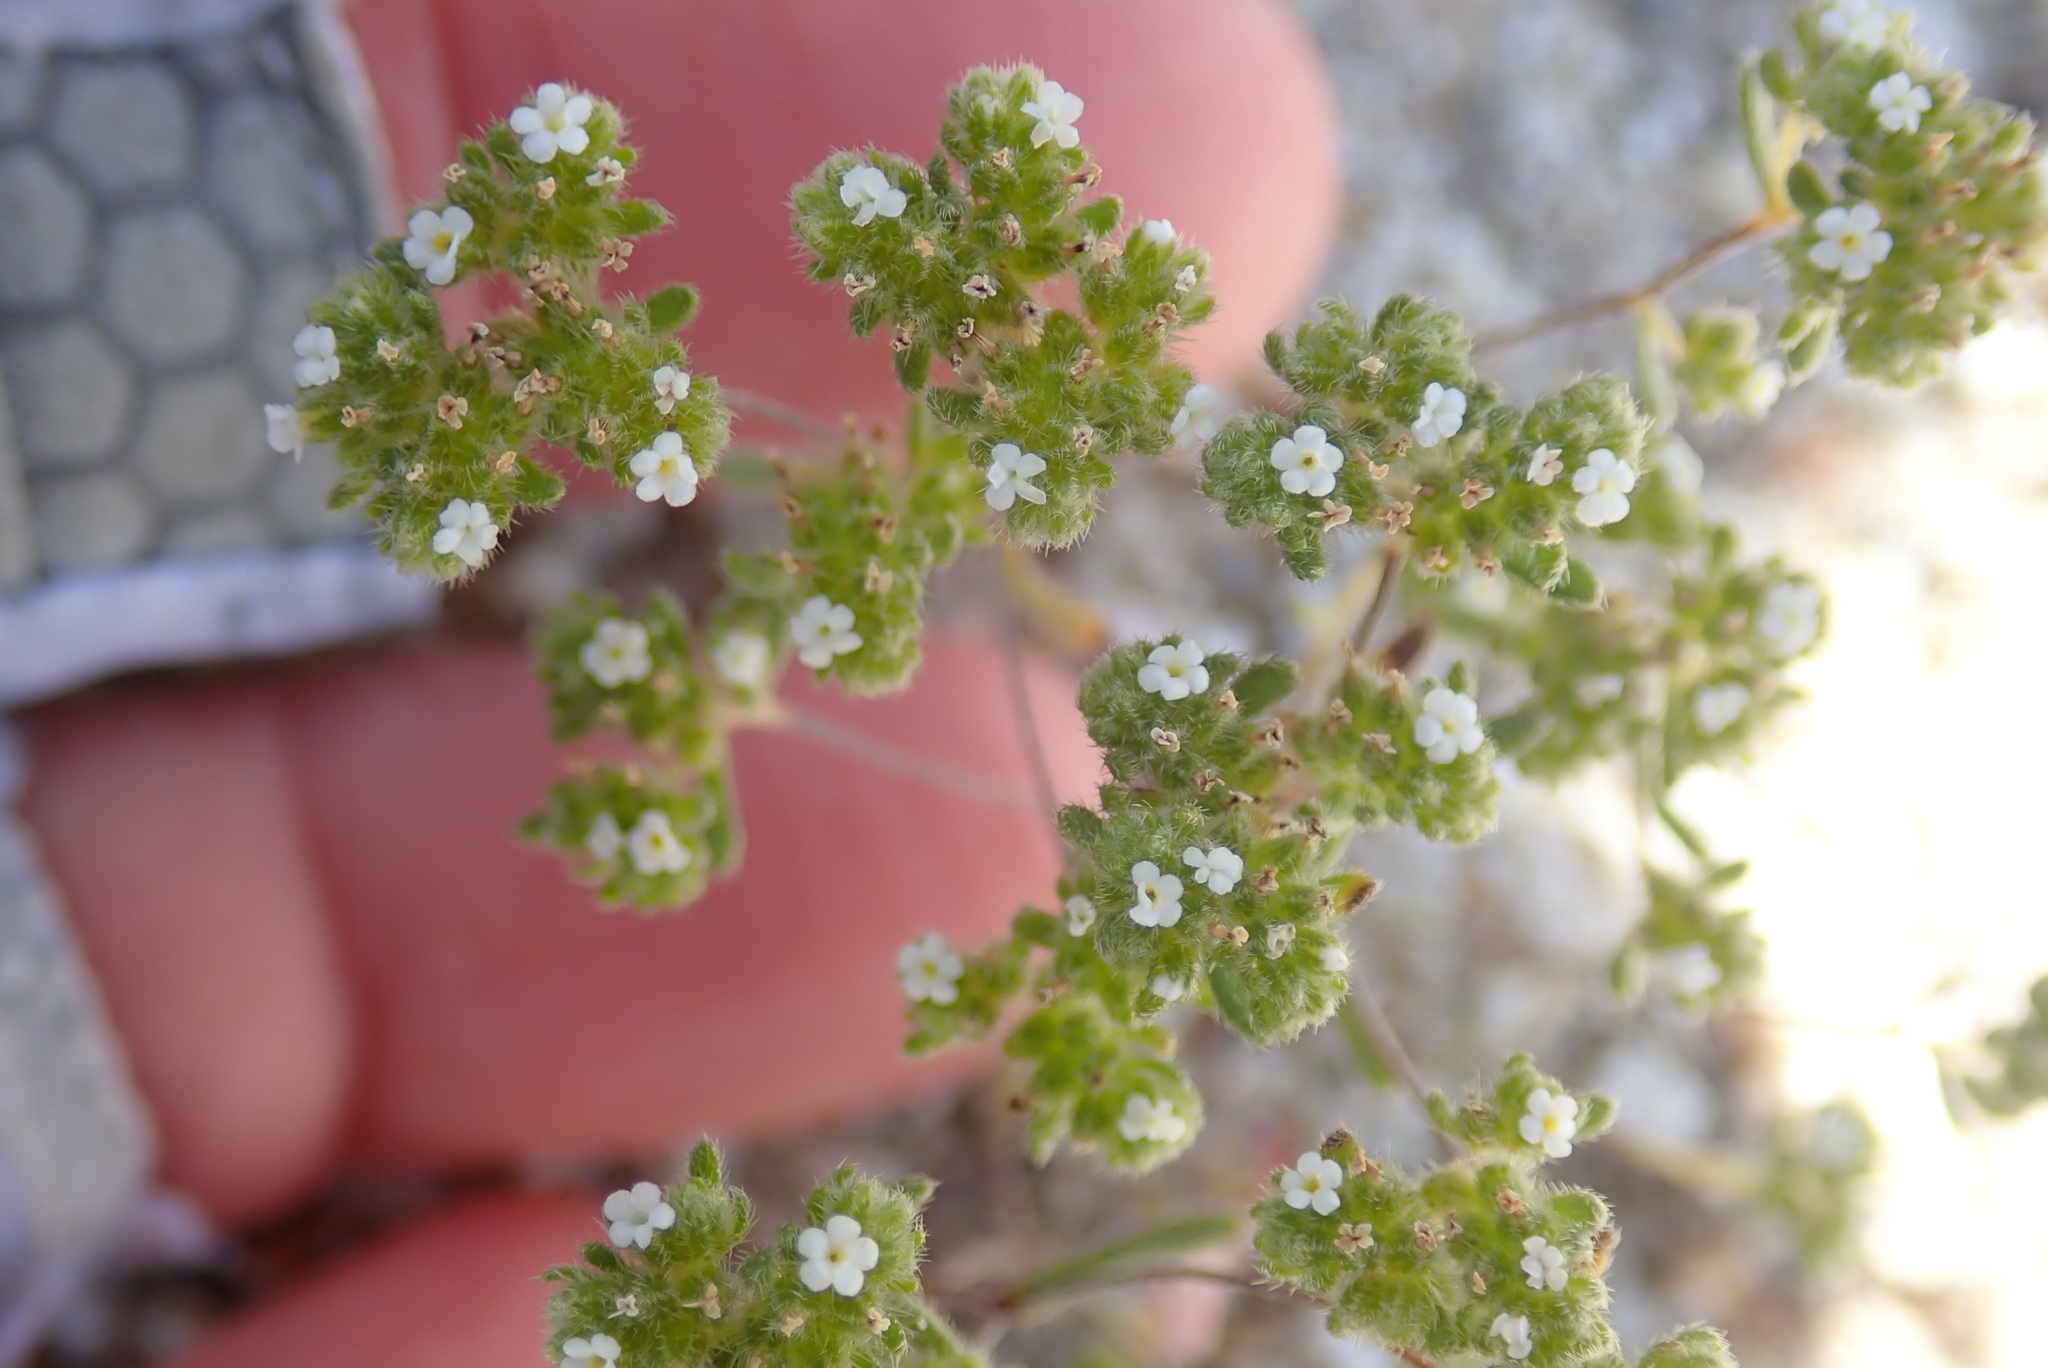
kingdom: Plantae
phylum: Tracheophyta
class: Magnoliopsida
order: Boraginales
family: Boraginaceae
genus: Eremocarya
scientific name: Eremocarya micrantha
